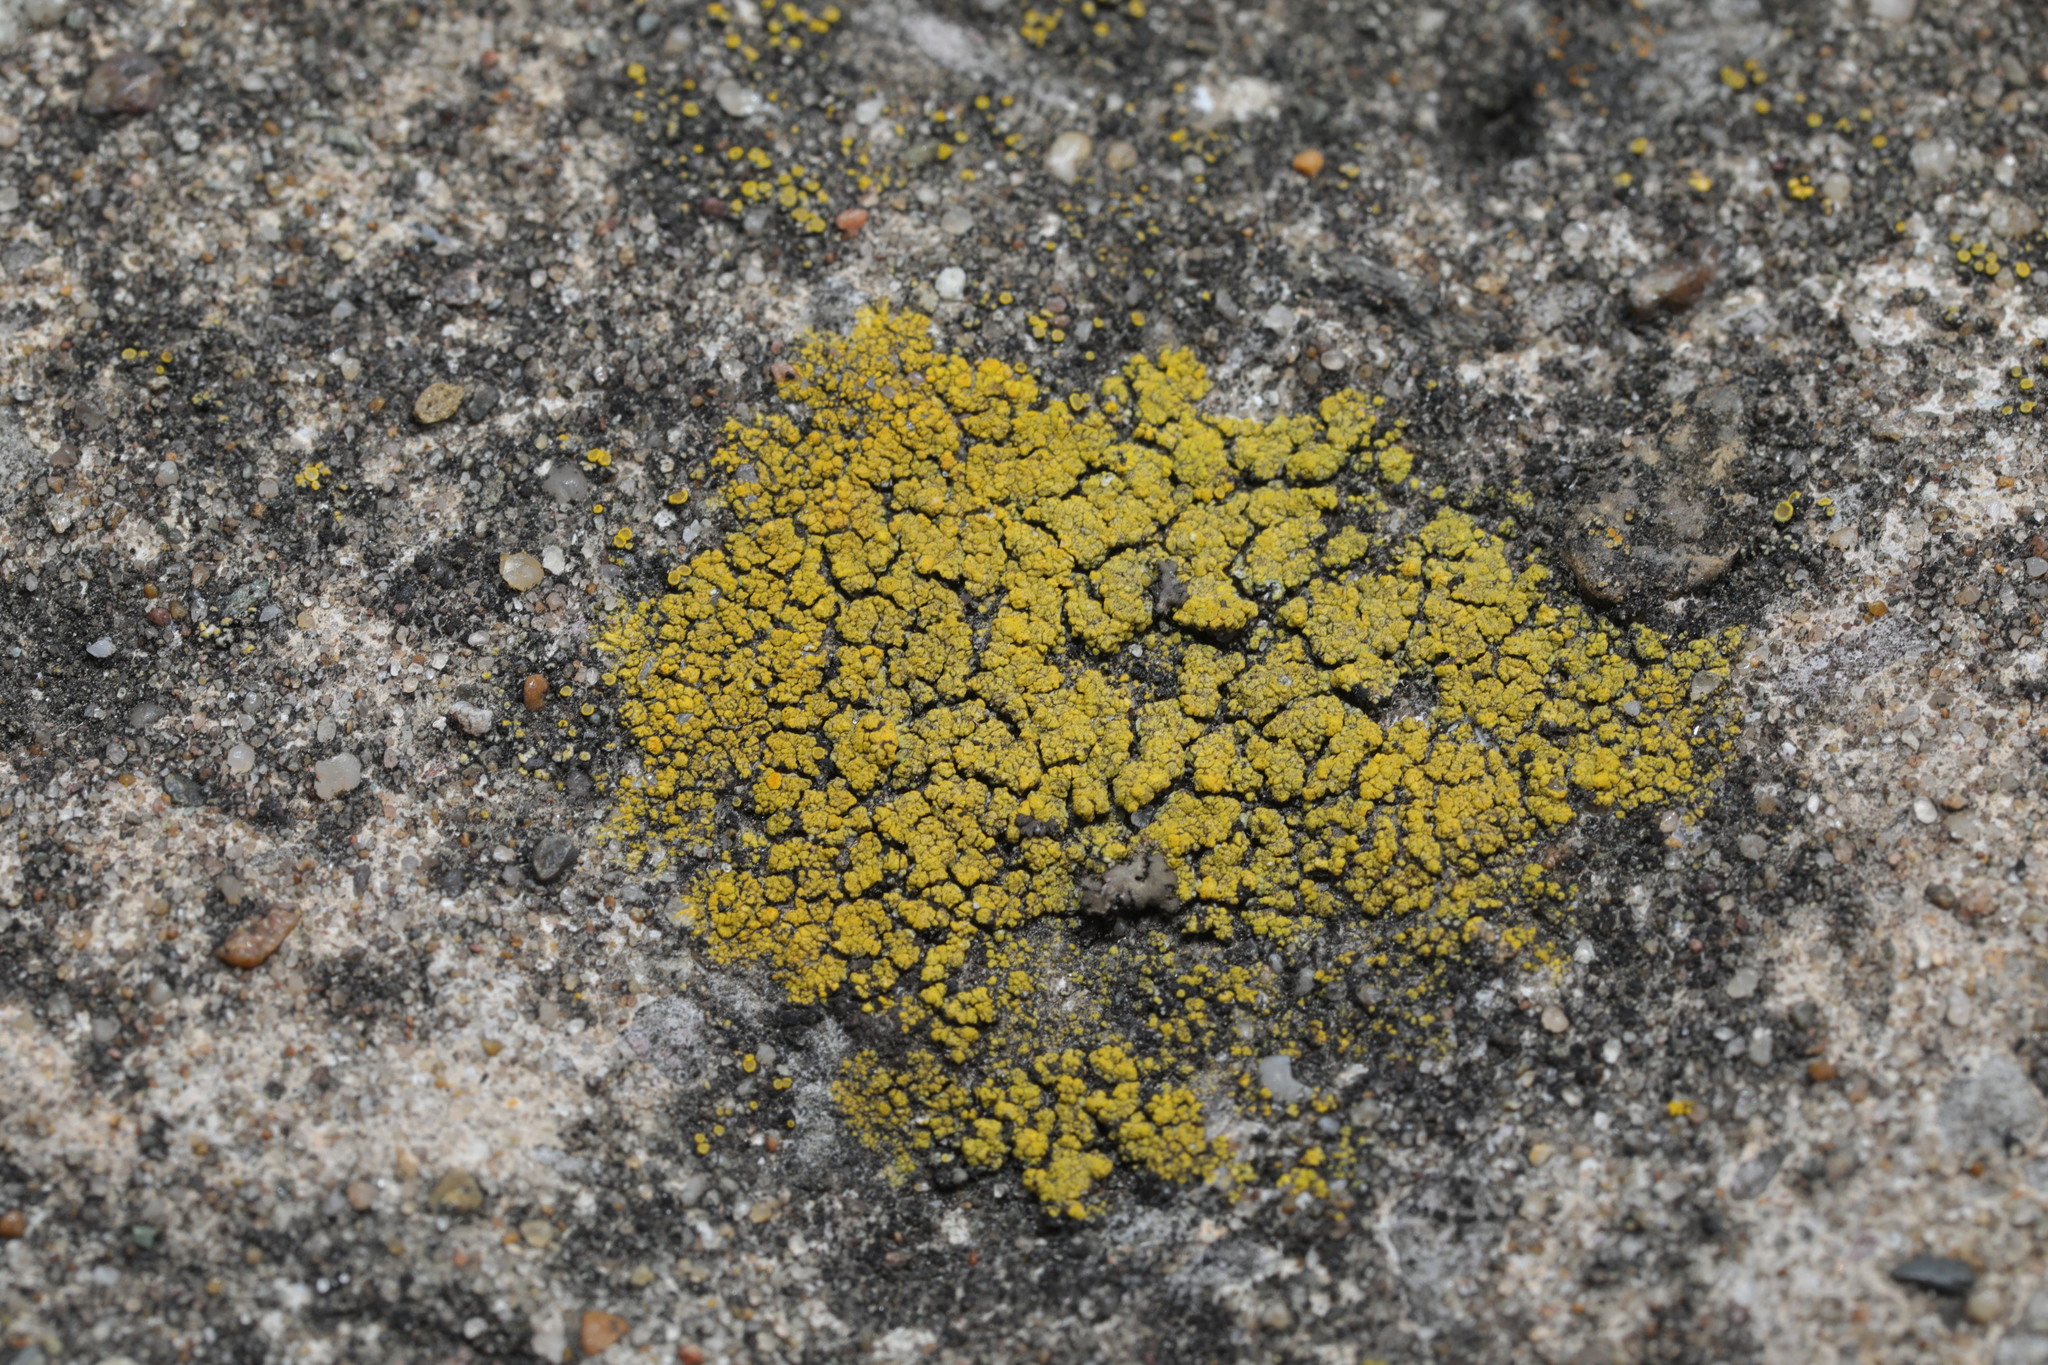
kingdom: Fungi
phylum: Ascomycota
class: Candelariomycetes
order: Candelariales
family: Candelariaceae
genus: Candelariella
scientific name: Candelariella vitellina
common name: Common goldspeck
